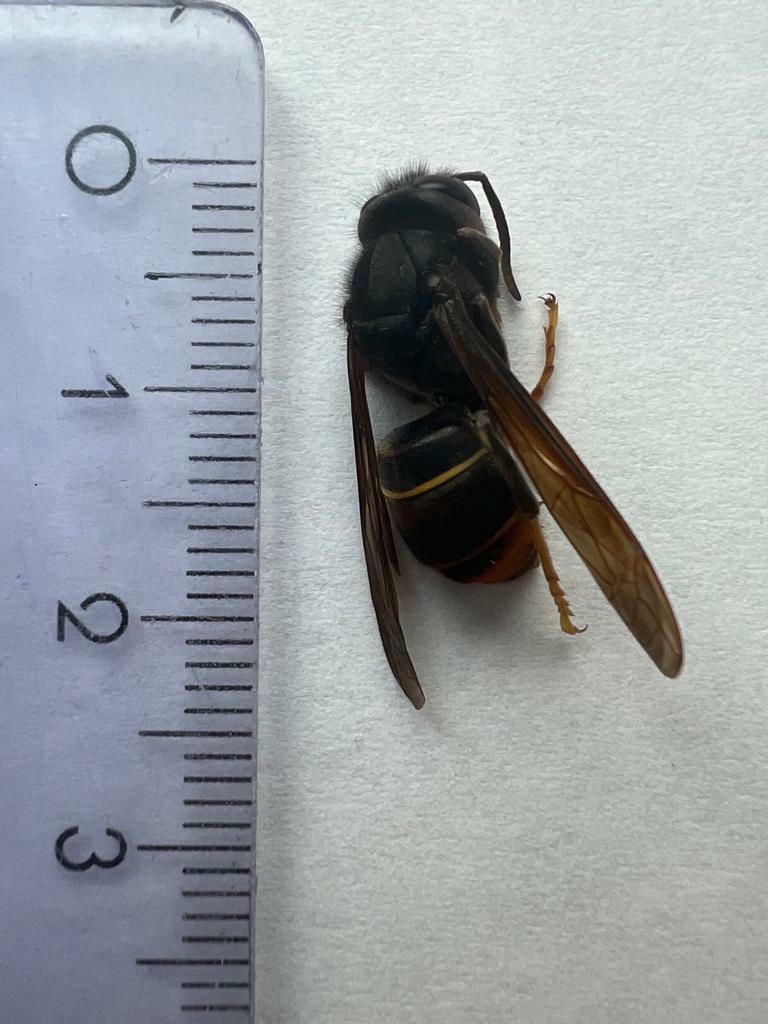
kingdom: Animalia
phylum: Arthropoda
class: Insecta
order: Hymenoptera
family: Vespidae
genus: Vespa
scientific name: Vespa velutina
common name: Asian hornet
